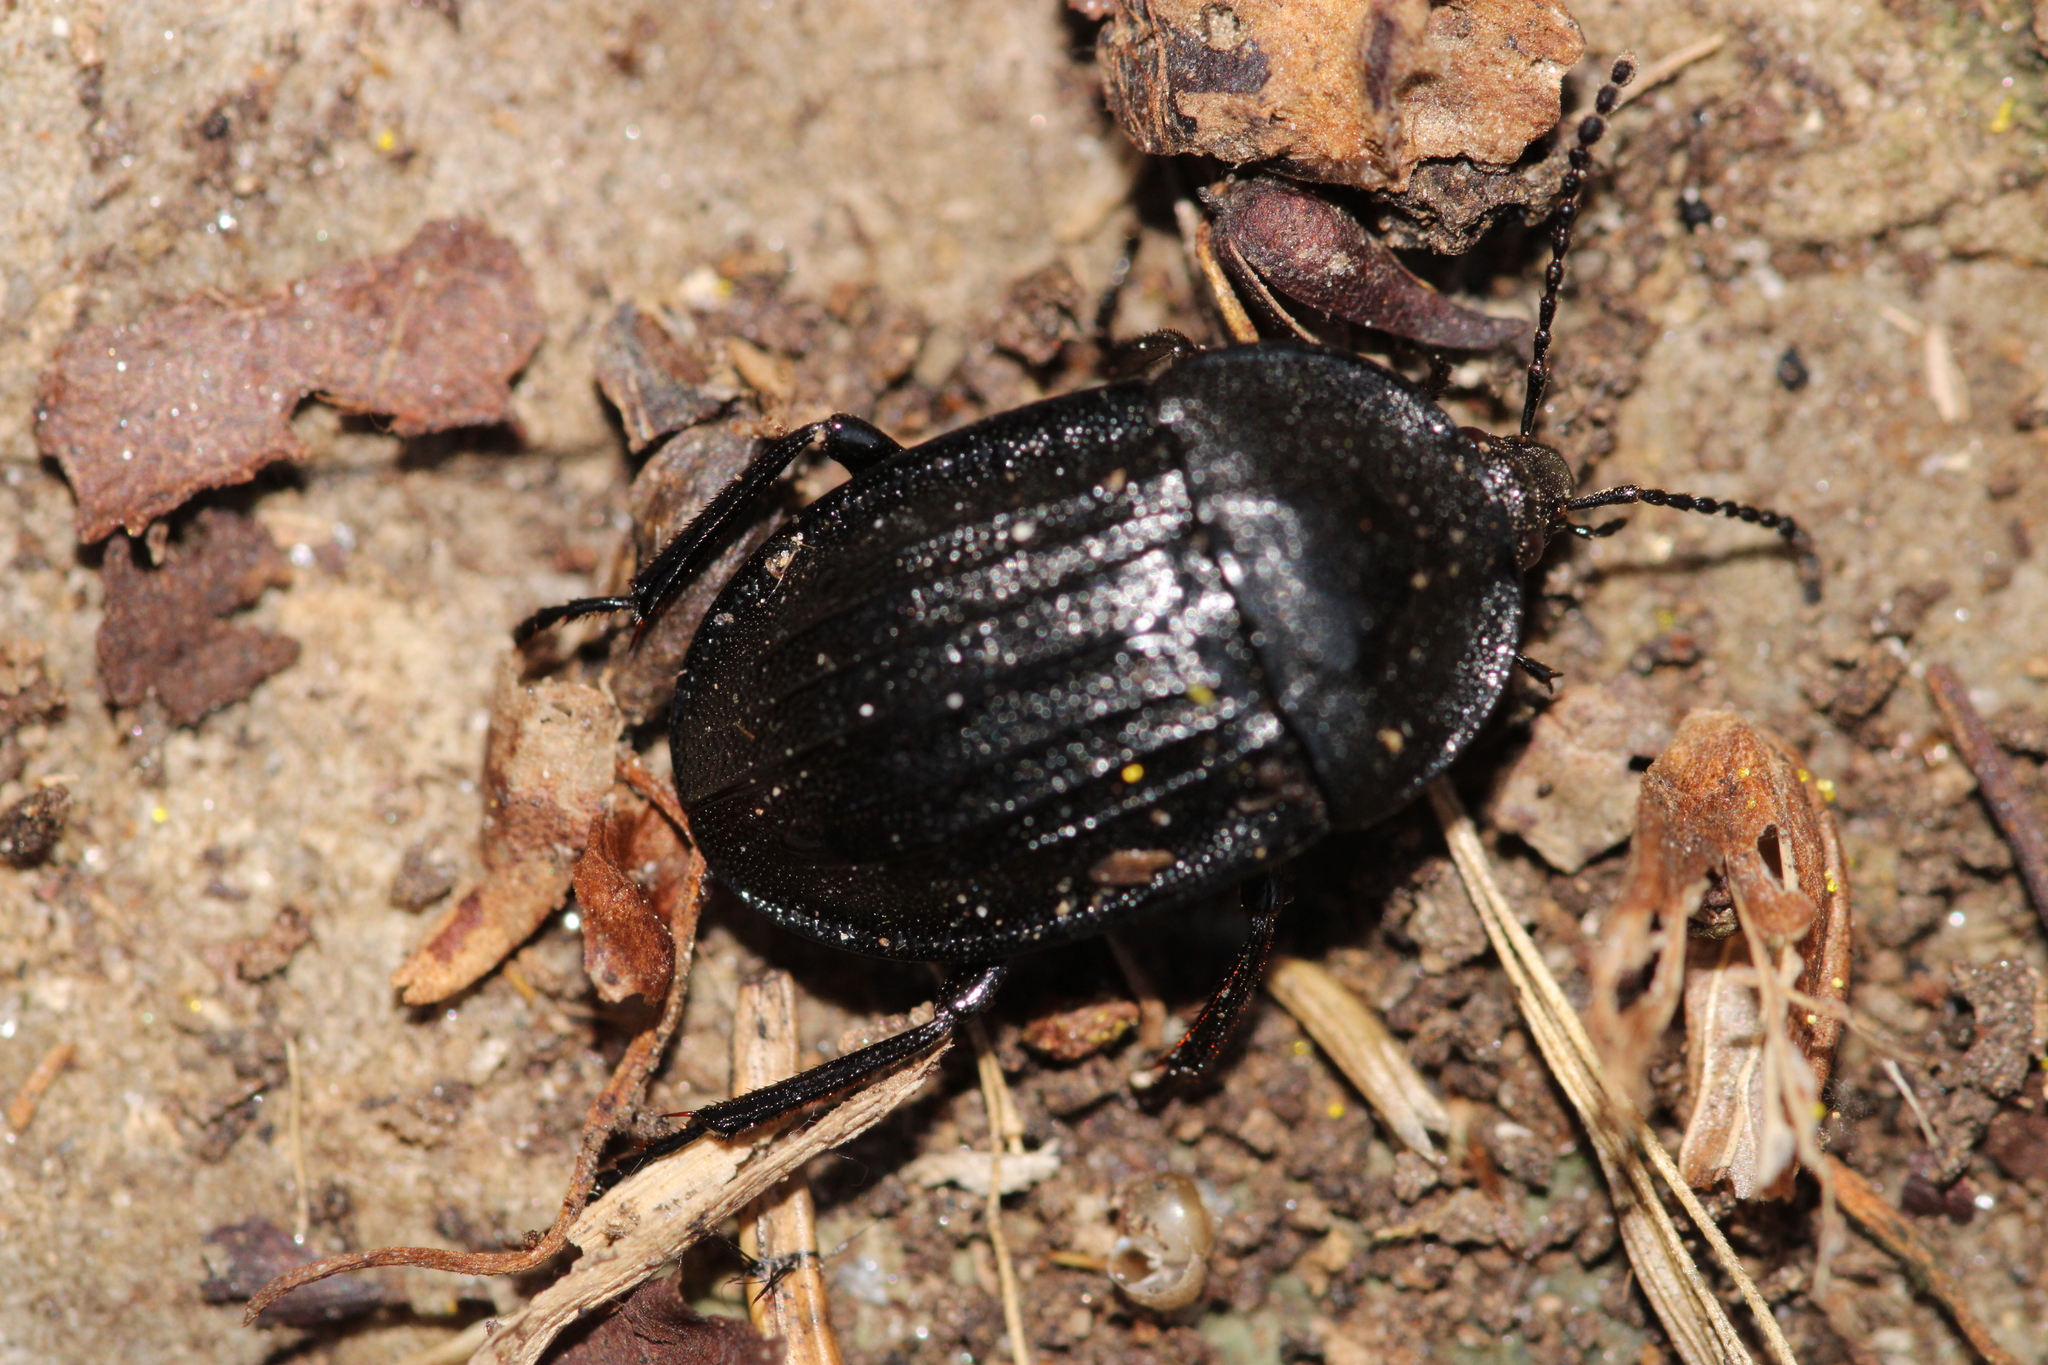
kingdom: Animalia
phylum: Arthropoda
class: Insecta
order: Coleoptera
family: Staphylinidae
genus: Silpha
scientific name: Silpha atrata
